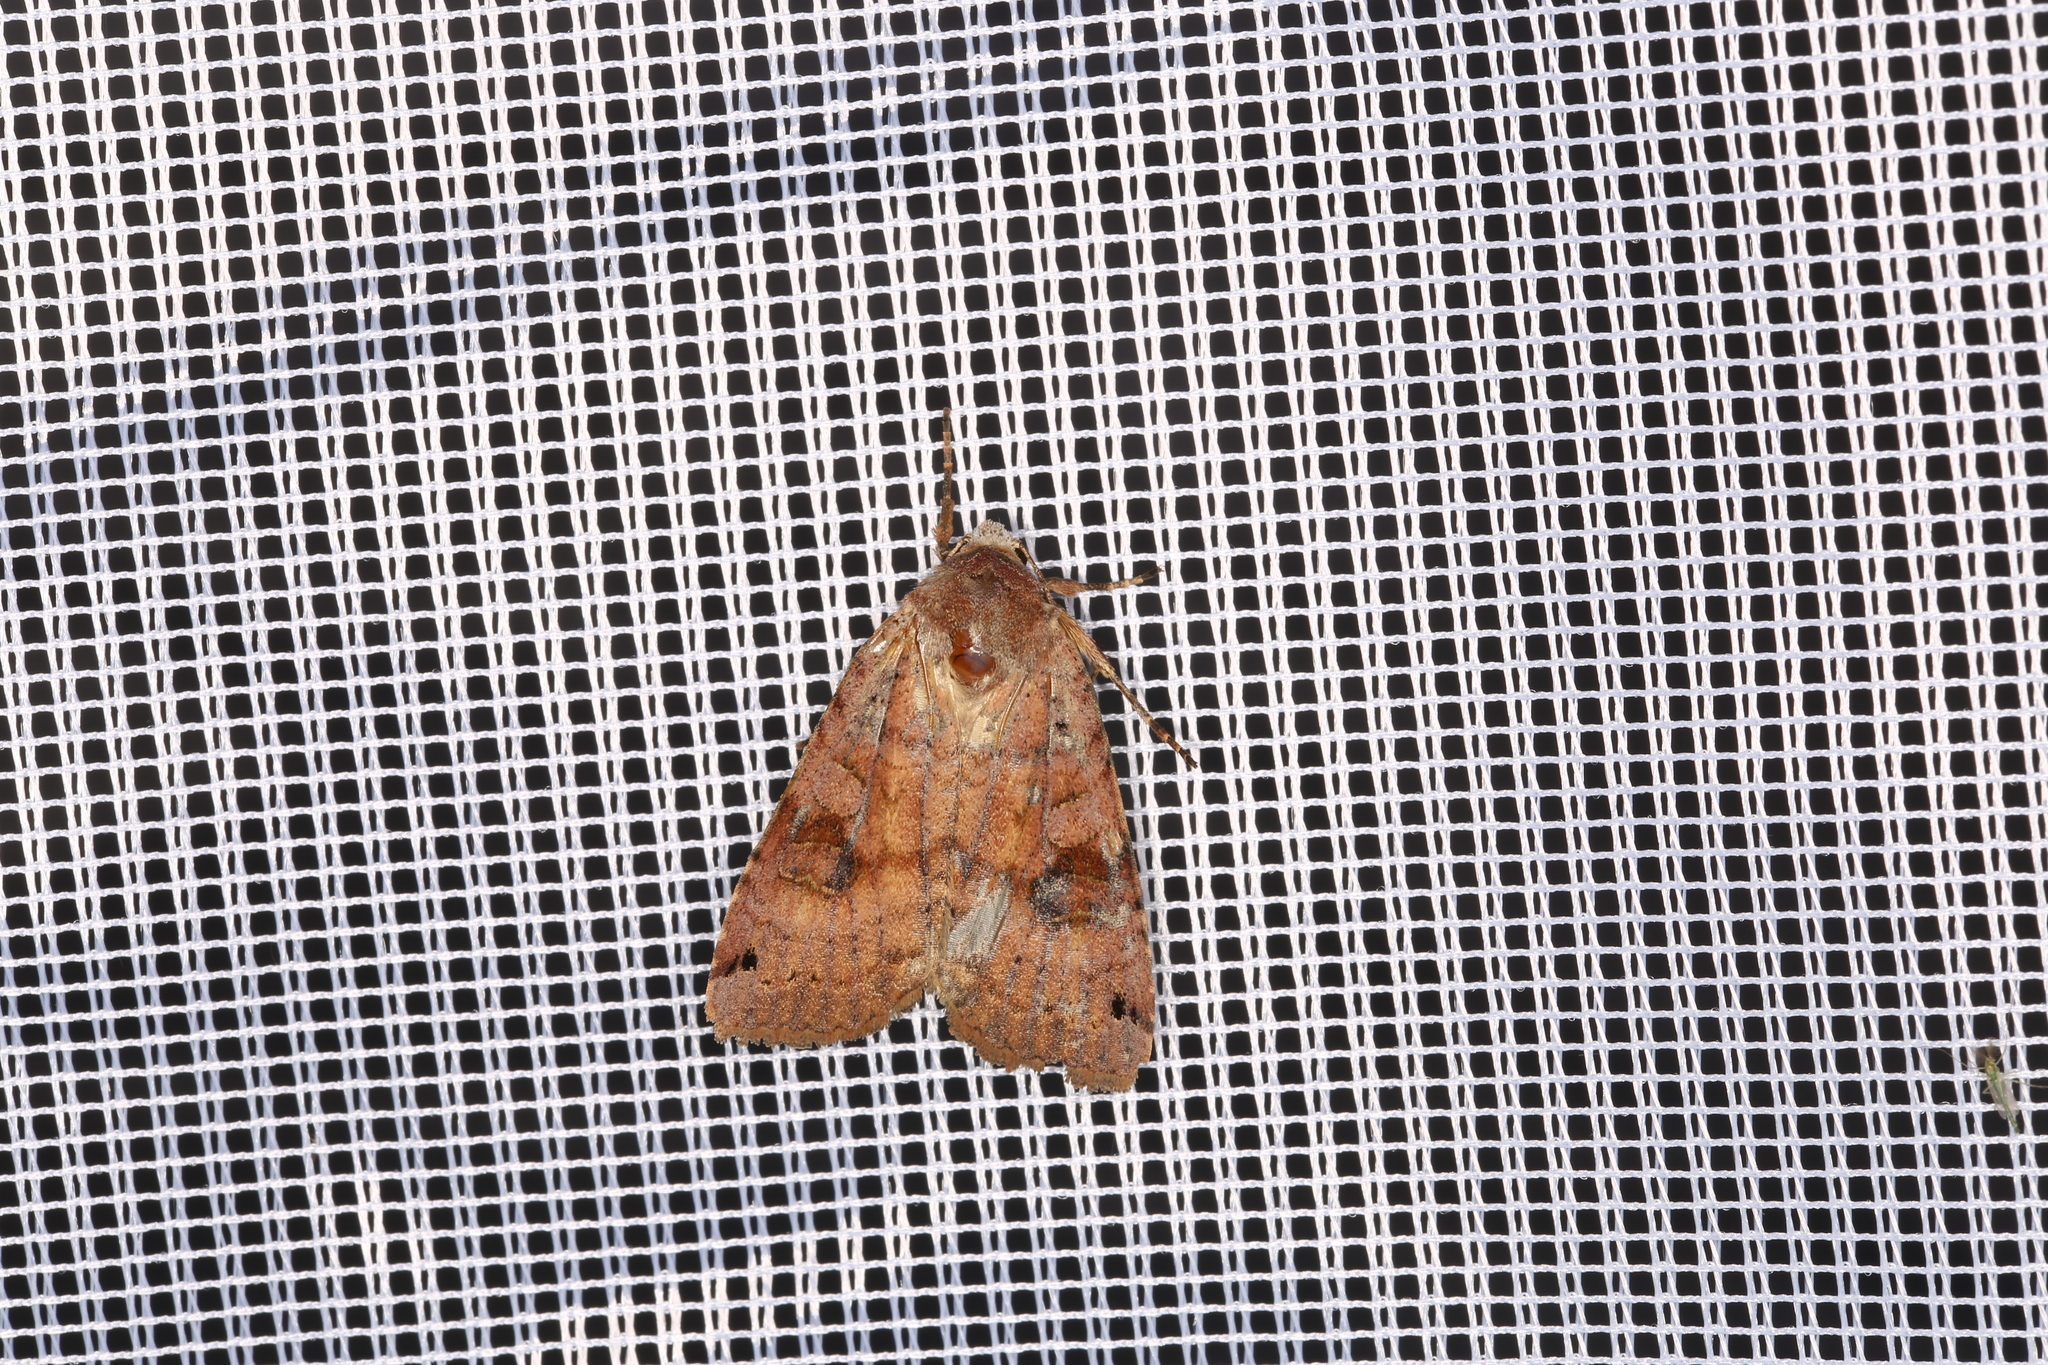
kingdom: Animalia
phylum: Arthropoda
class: Insecta
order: Lepidoptera
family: Noctuidae
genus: Xestia
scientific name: Xestia baja
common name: Dotted clay
